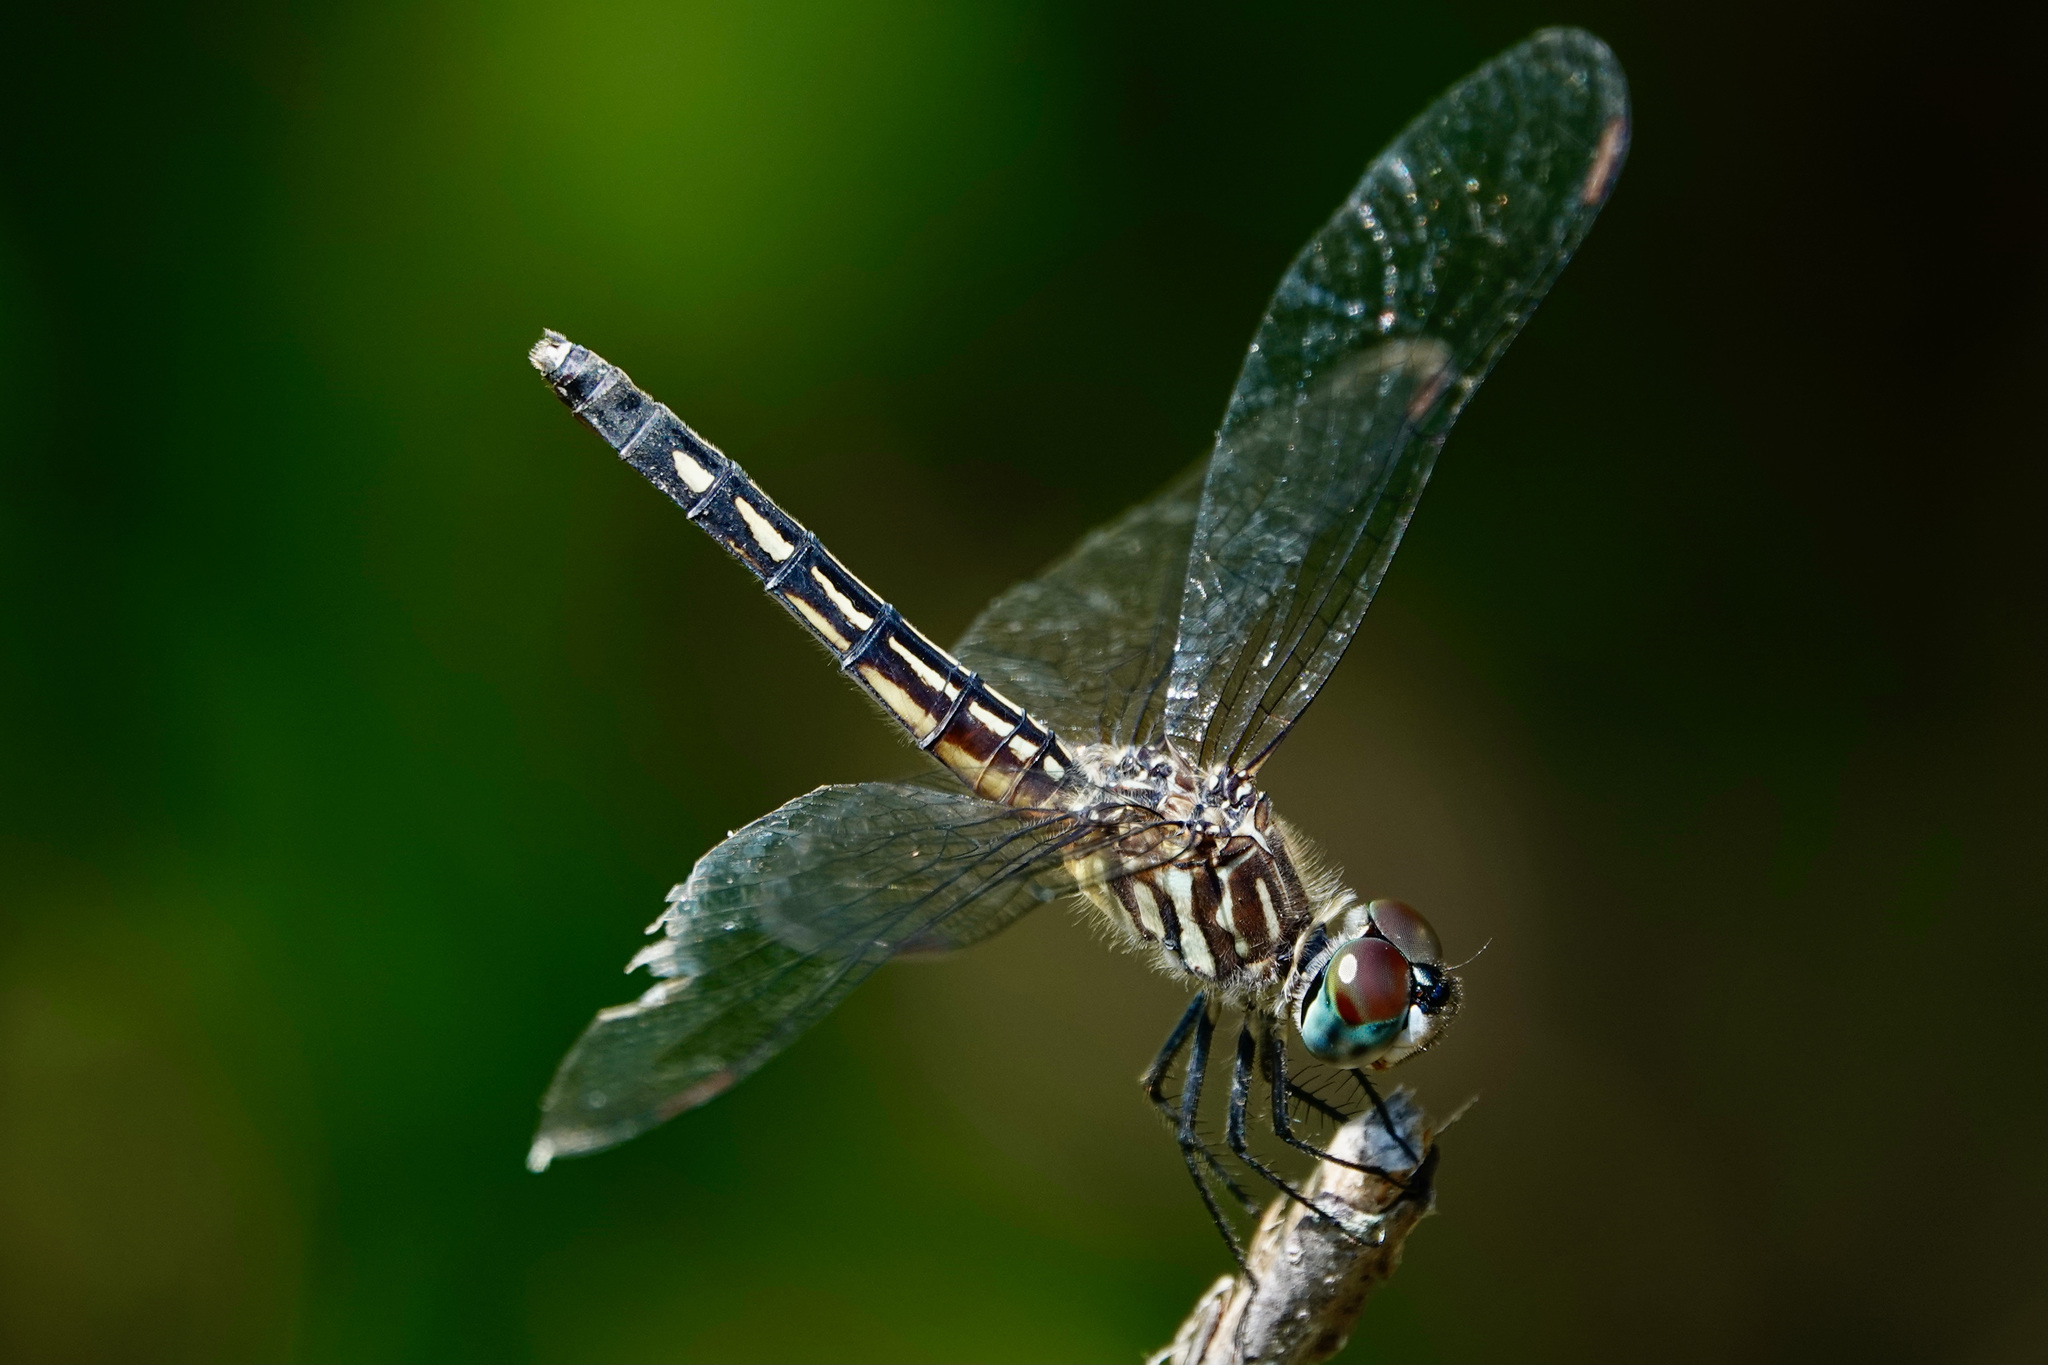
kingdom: Animalia
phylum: Arthropoda
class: Insecta
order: Odonata
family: Libellulidae
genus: Pachydiplax
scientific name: Pachydiplax longipennis
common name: Blue dasher
